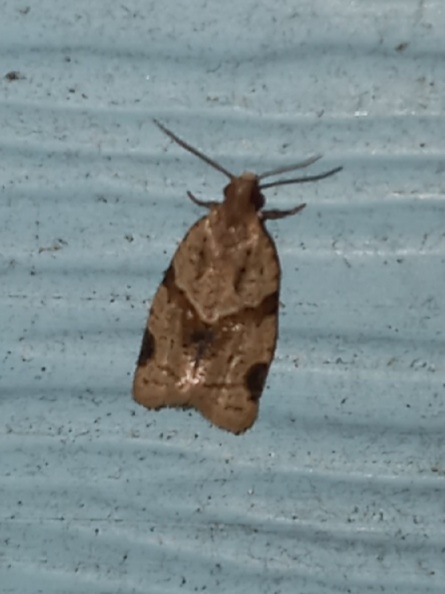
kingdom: Animalia
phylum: Arthropoda
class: Insecta
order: Lepidoptera
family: Tortricidae
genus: Clepsis
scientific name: Clepsis peritana
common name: Garden tortrix
